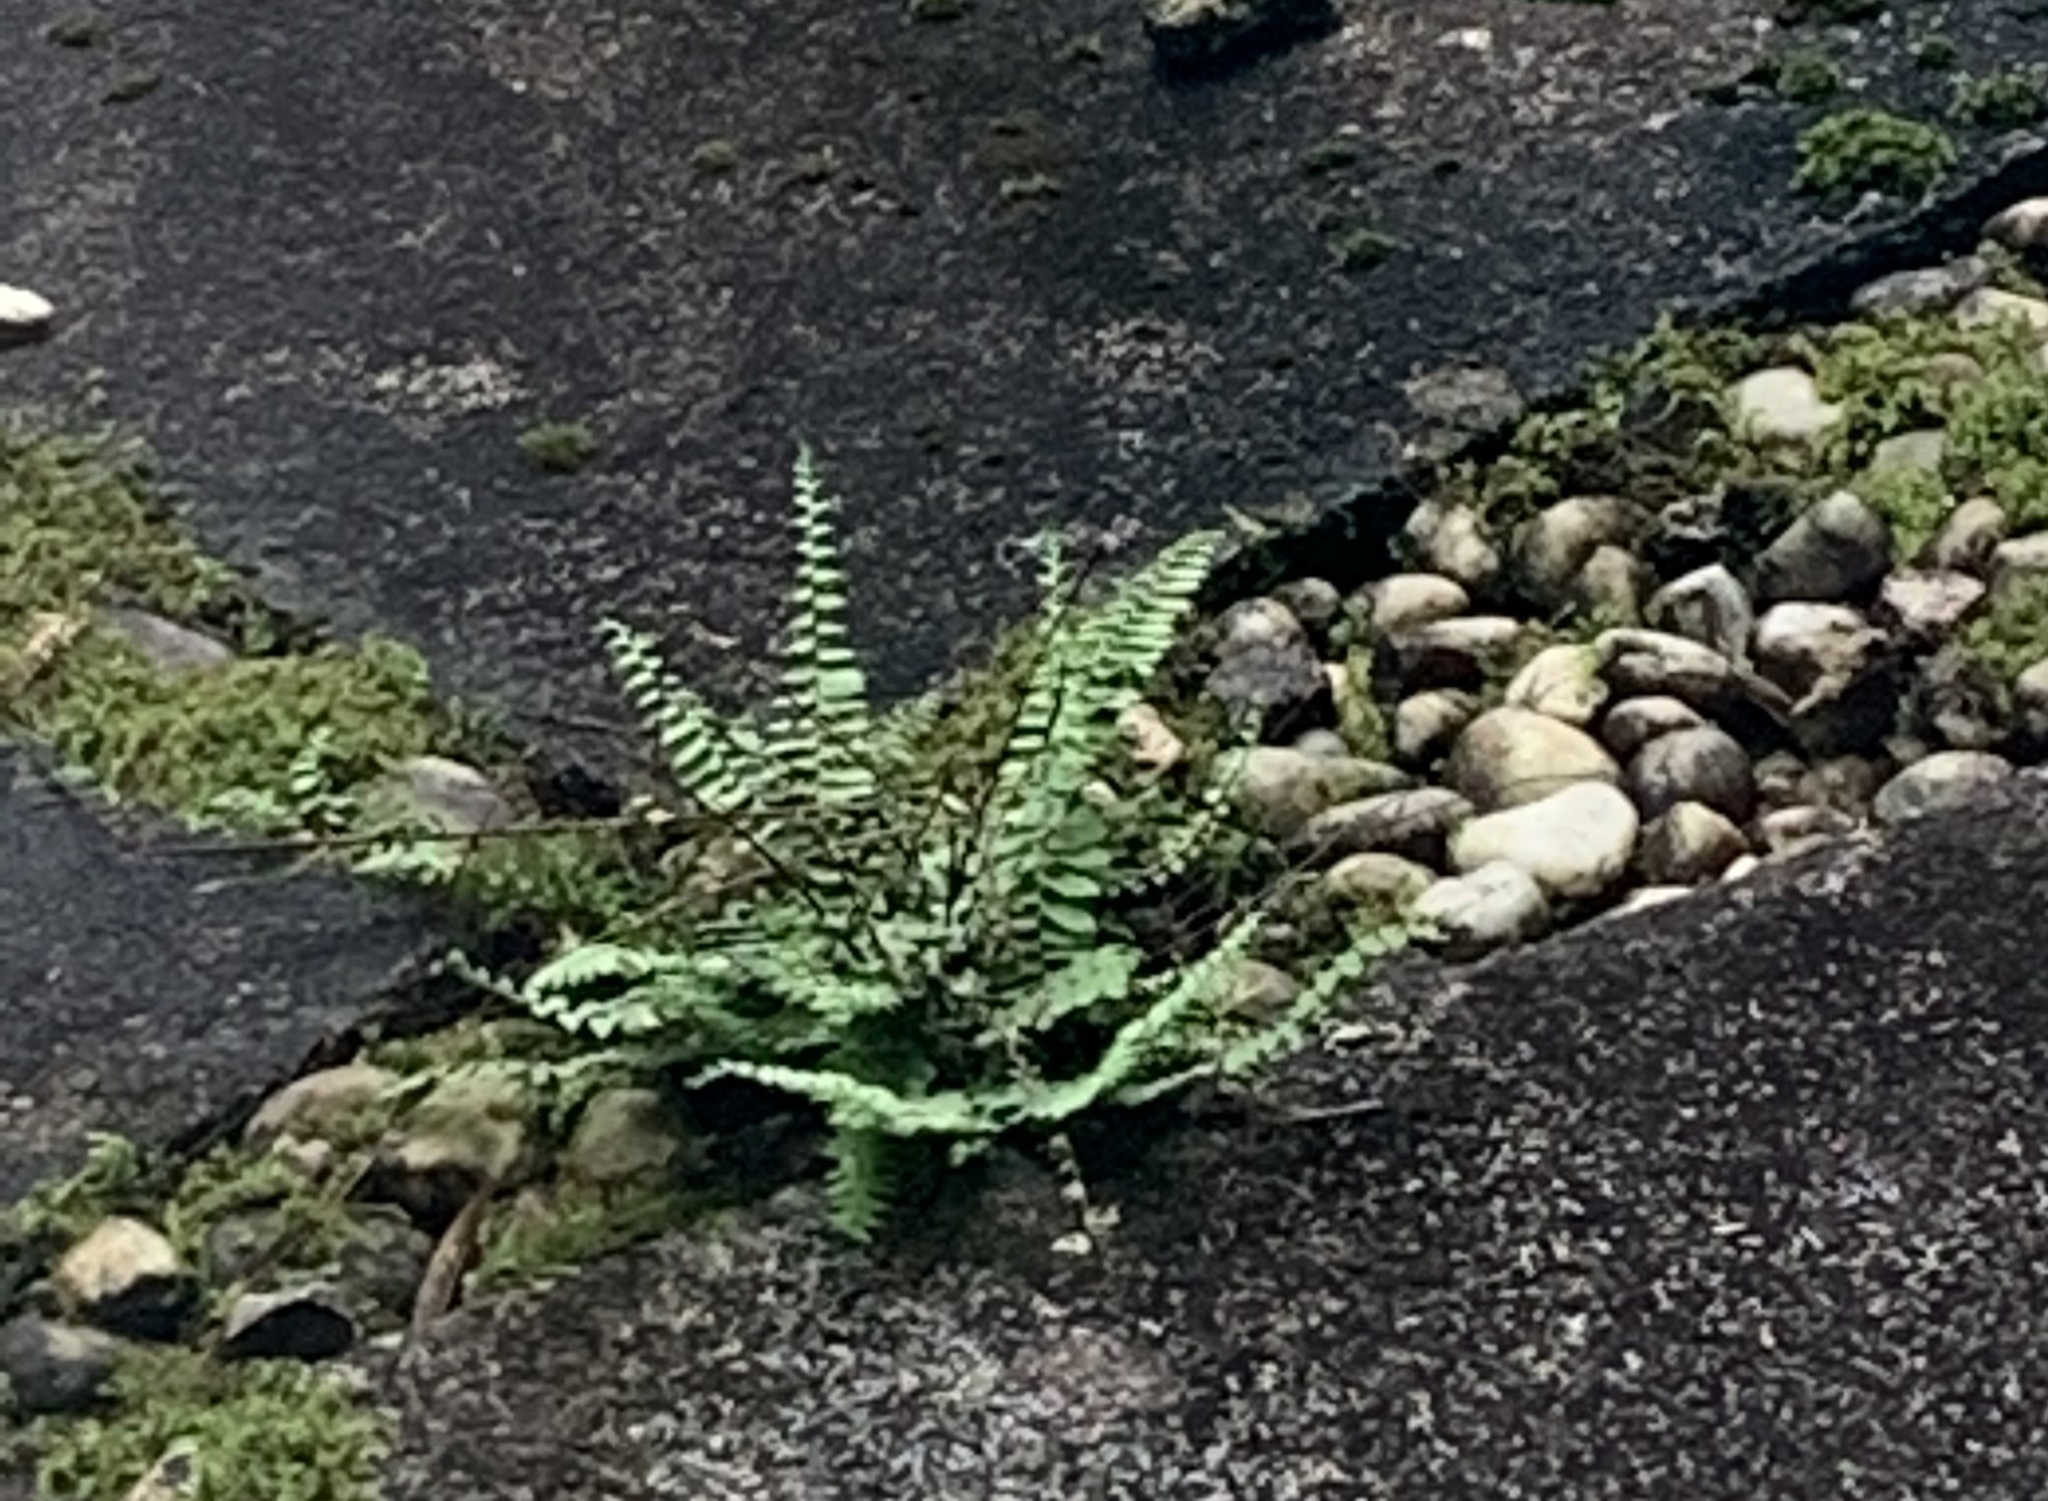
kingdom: Plantae
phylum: Tracheophyta
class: Polypodiopsida
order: Polypodiales
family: Aspleniaceae
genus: Asplenium
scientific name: Asplenium platyneuron
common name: Ebony spleenwort
